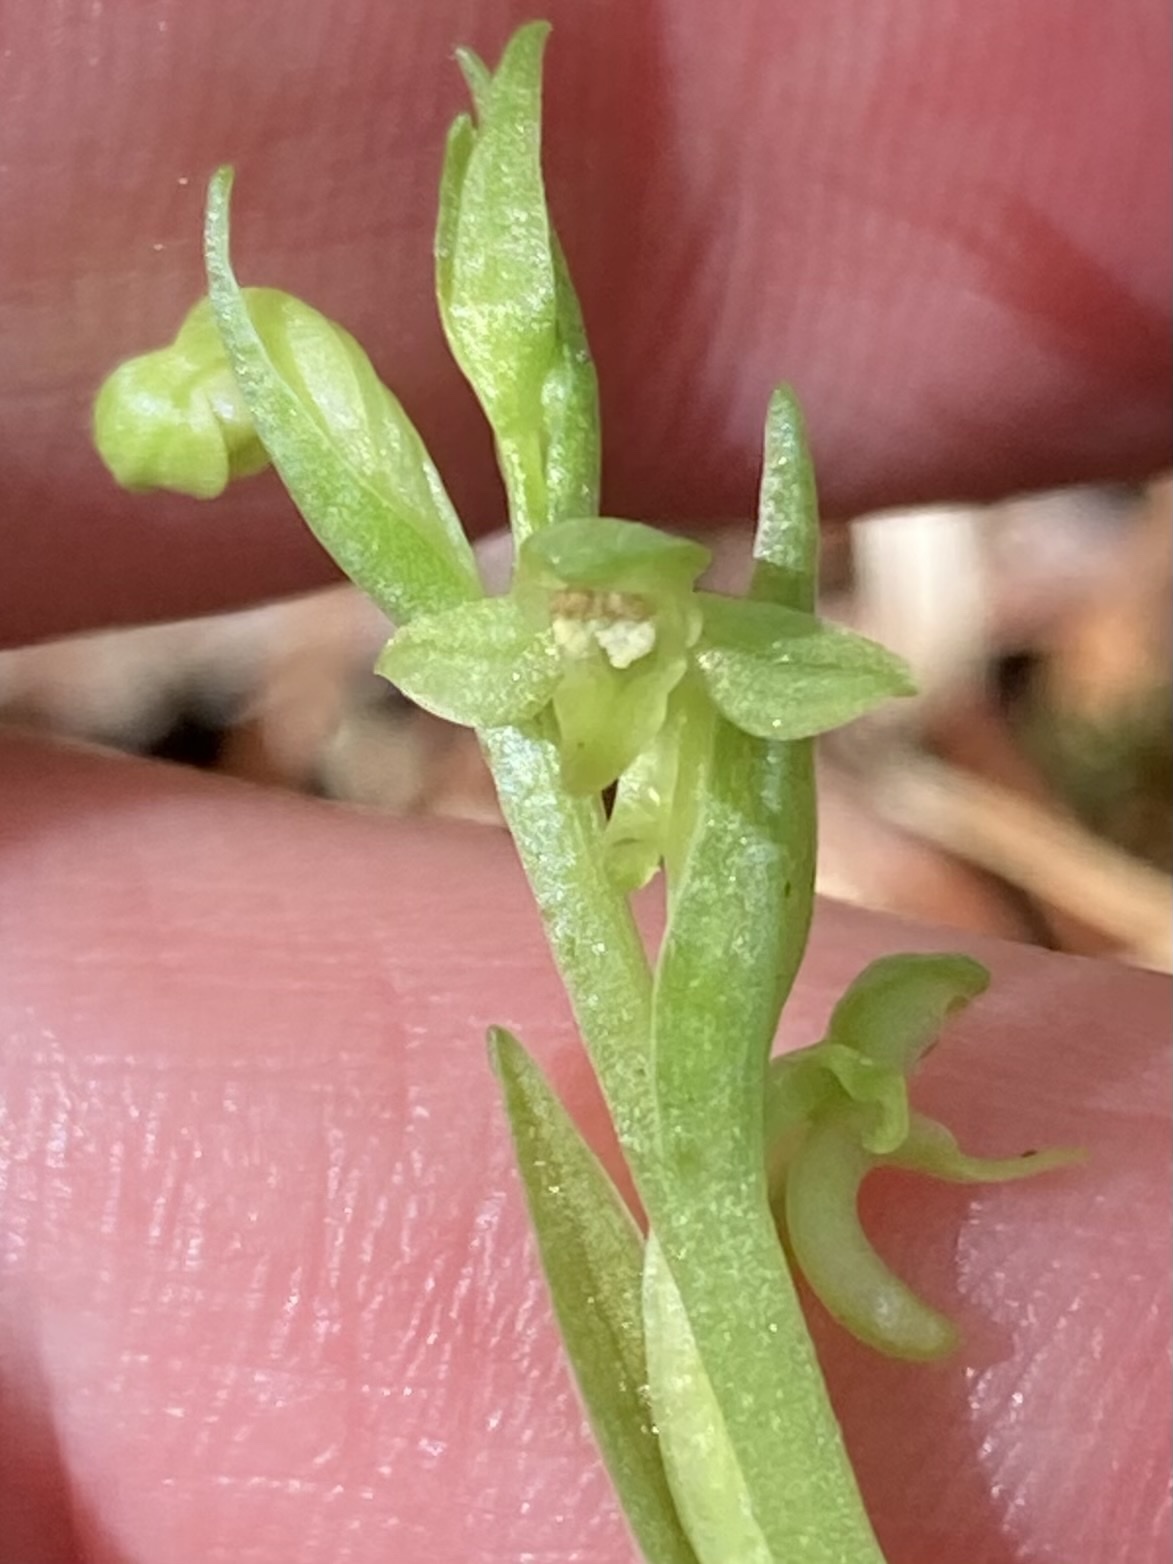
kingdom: Plantae
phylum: Tracheophyta
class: Liliopsida
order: Asparagales
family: Orchidaceae
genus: Platanthera
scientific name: Platanthera aquilonis
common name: Northern green orchid
